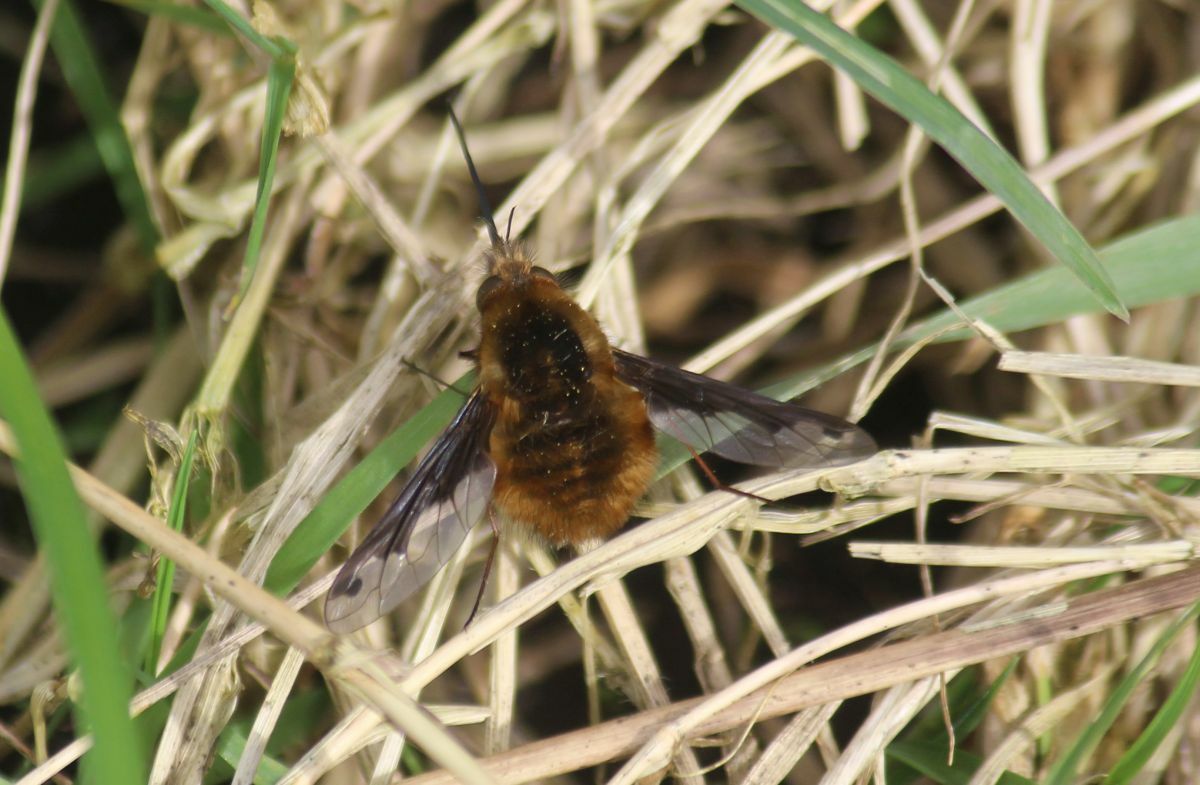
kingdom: Animalia
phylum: Arthropoda
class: Insecta
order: Diptera
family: Bombyliidae
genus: Bombylius
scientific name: Bombylius major
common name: Bee fly
